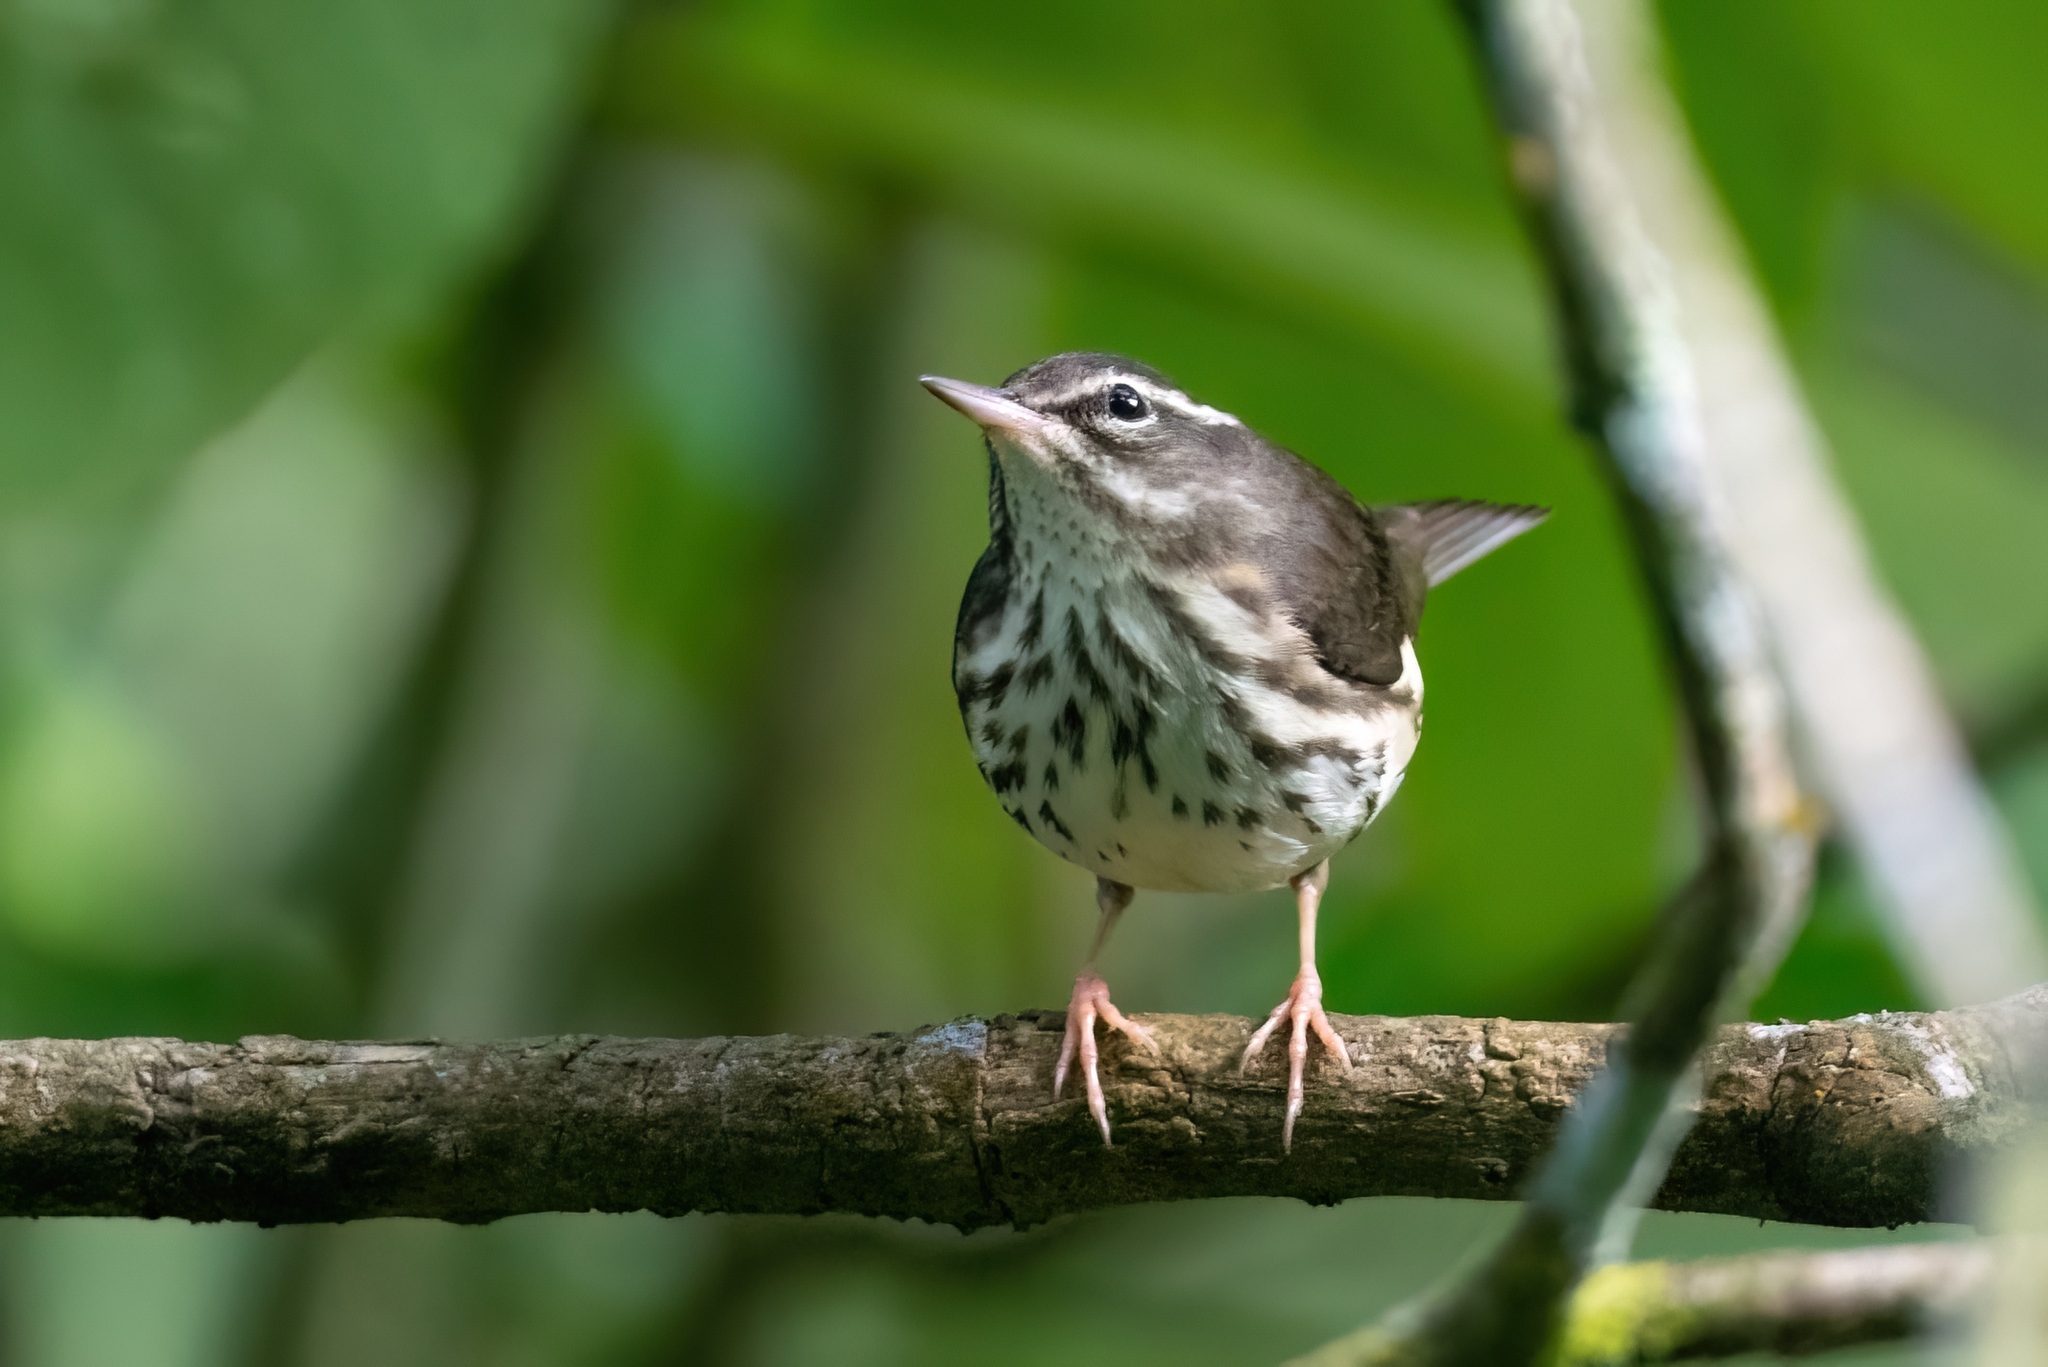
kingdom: Animalia
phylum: Chordata
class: Aves
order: Passeriformes
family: Parulidae
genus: Parkesia
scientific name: Parkesia motacilla
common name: Louisiana waterthrush
